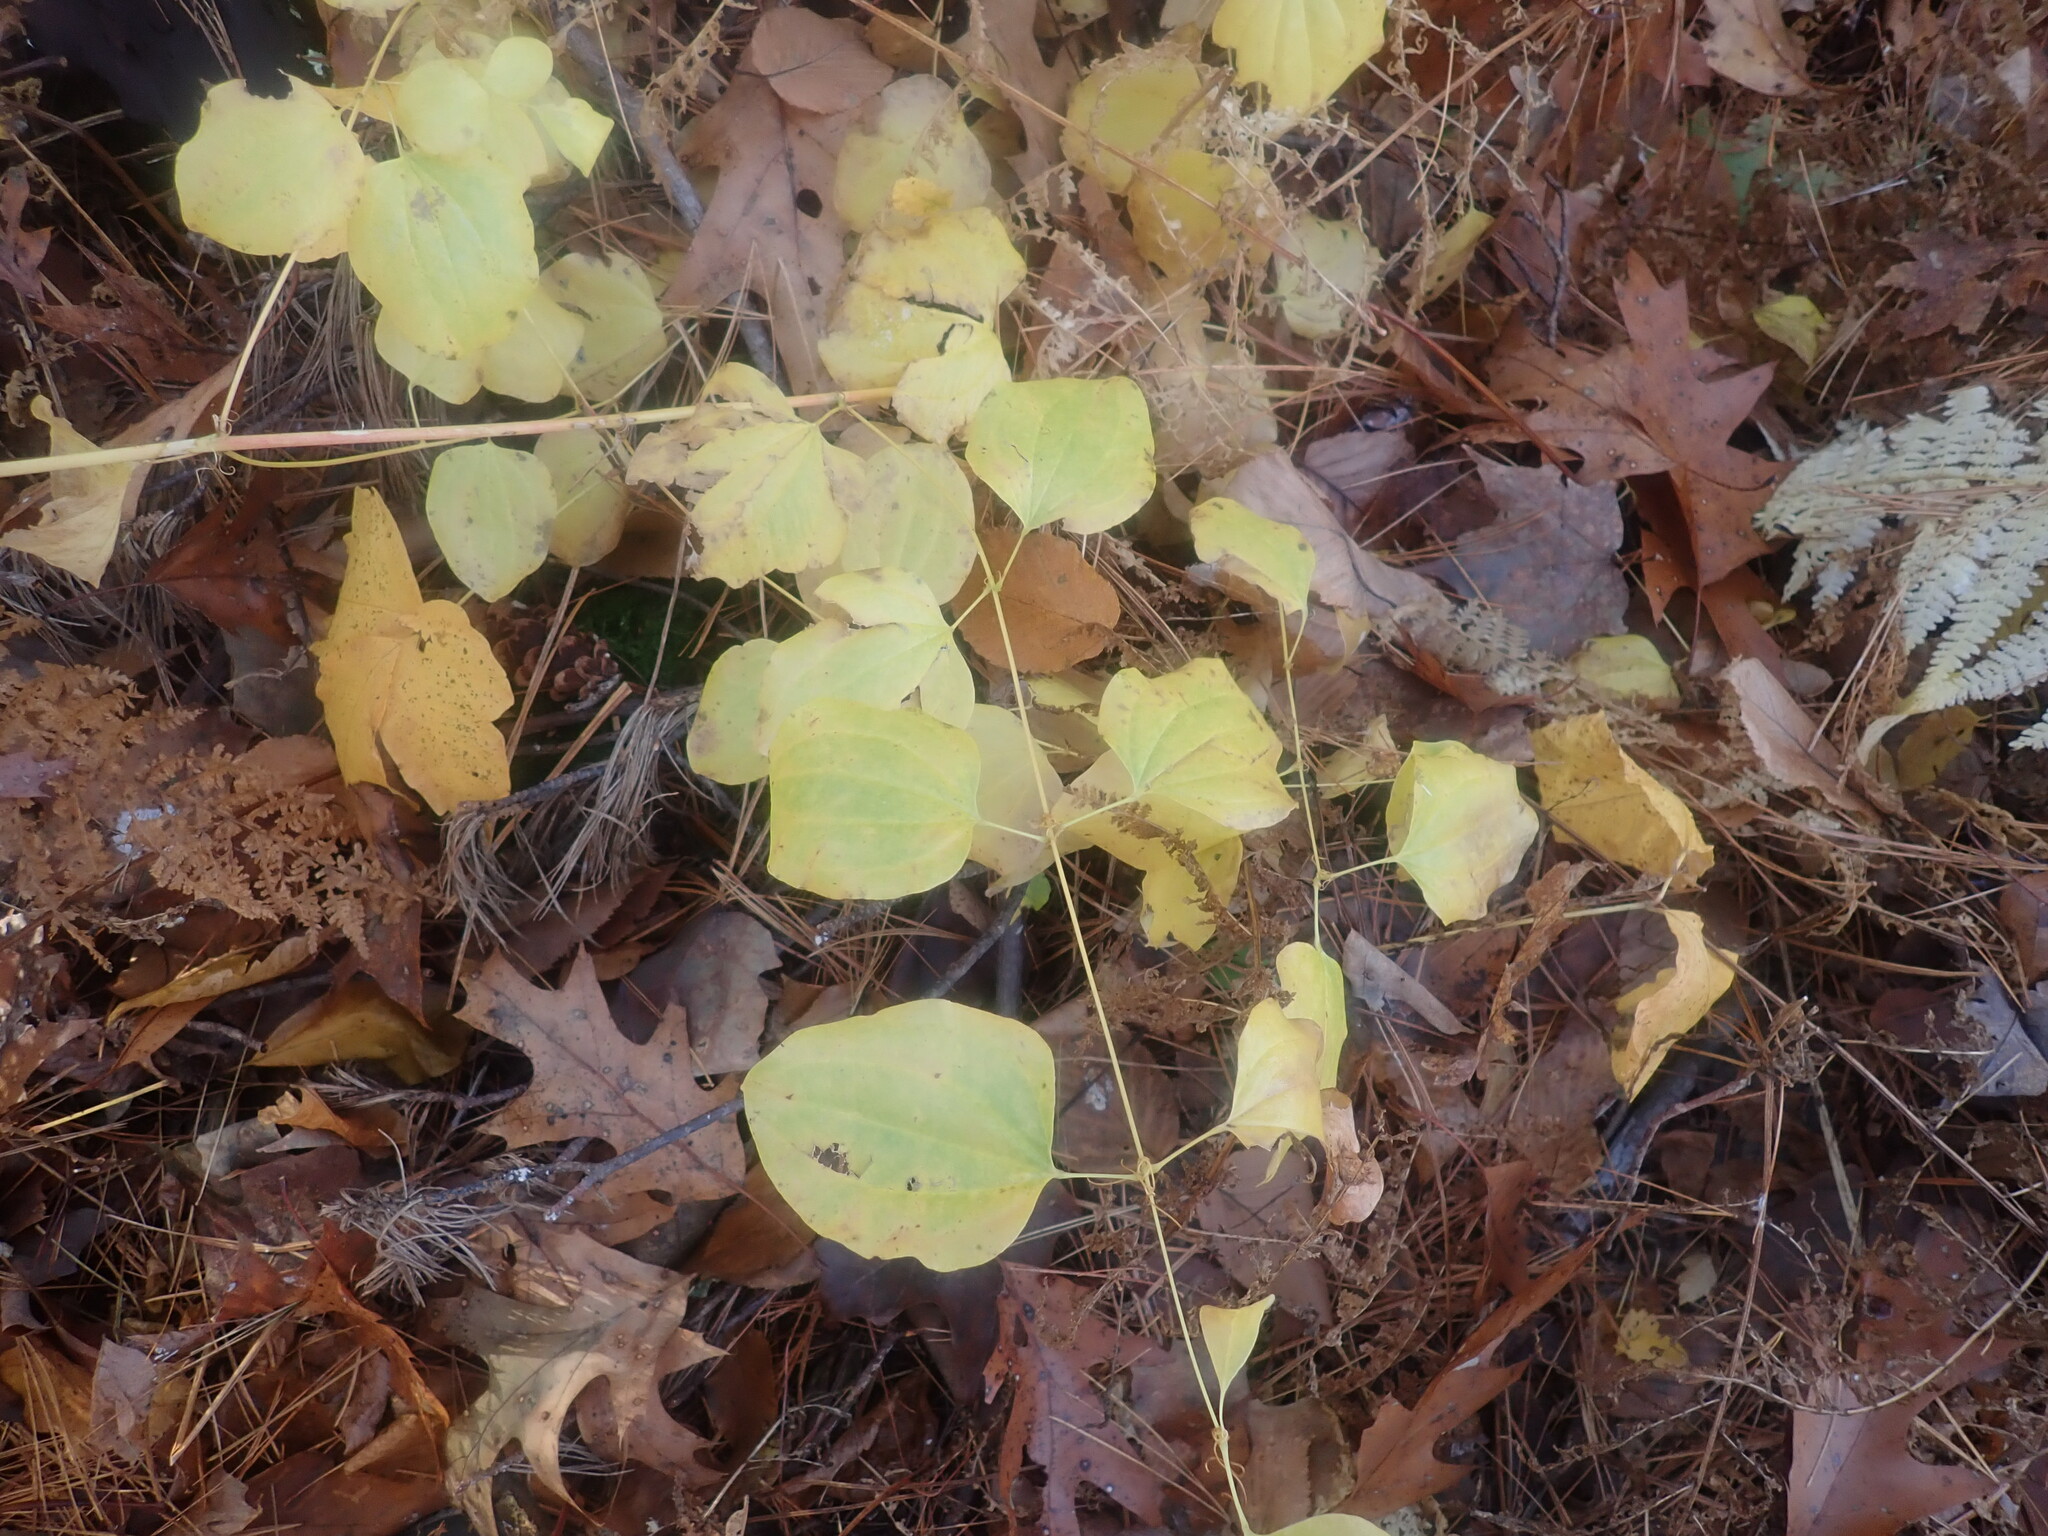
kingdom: Plantae
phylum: Tracheophyta
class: Liliopsida
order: Liliales
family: Smilacaceae
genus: Smilax
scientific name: Smilax herbacea
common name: Jacob's-ladder
